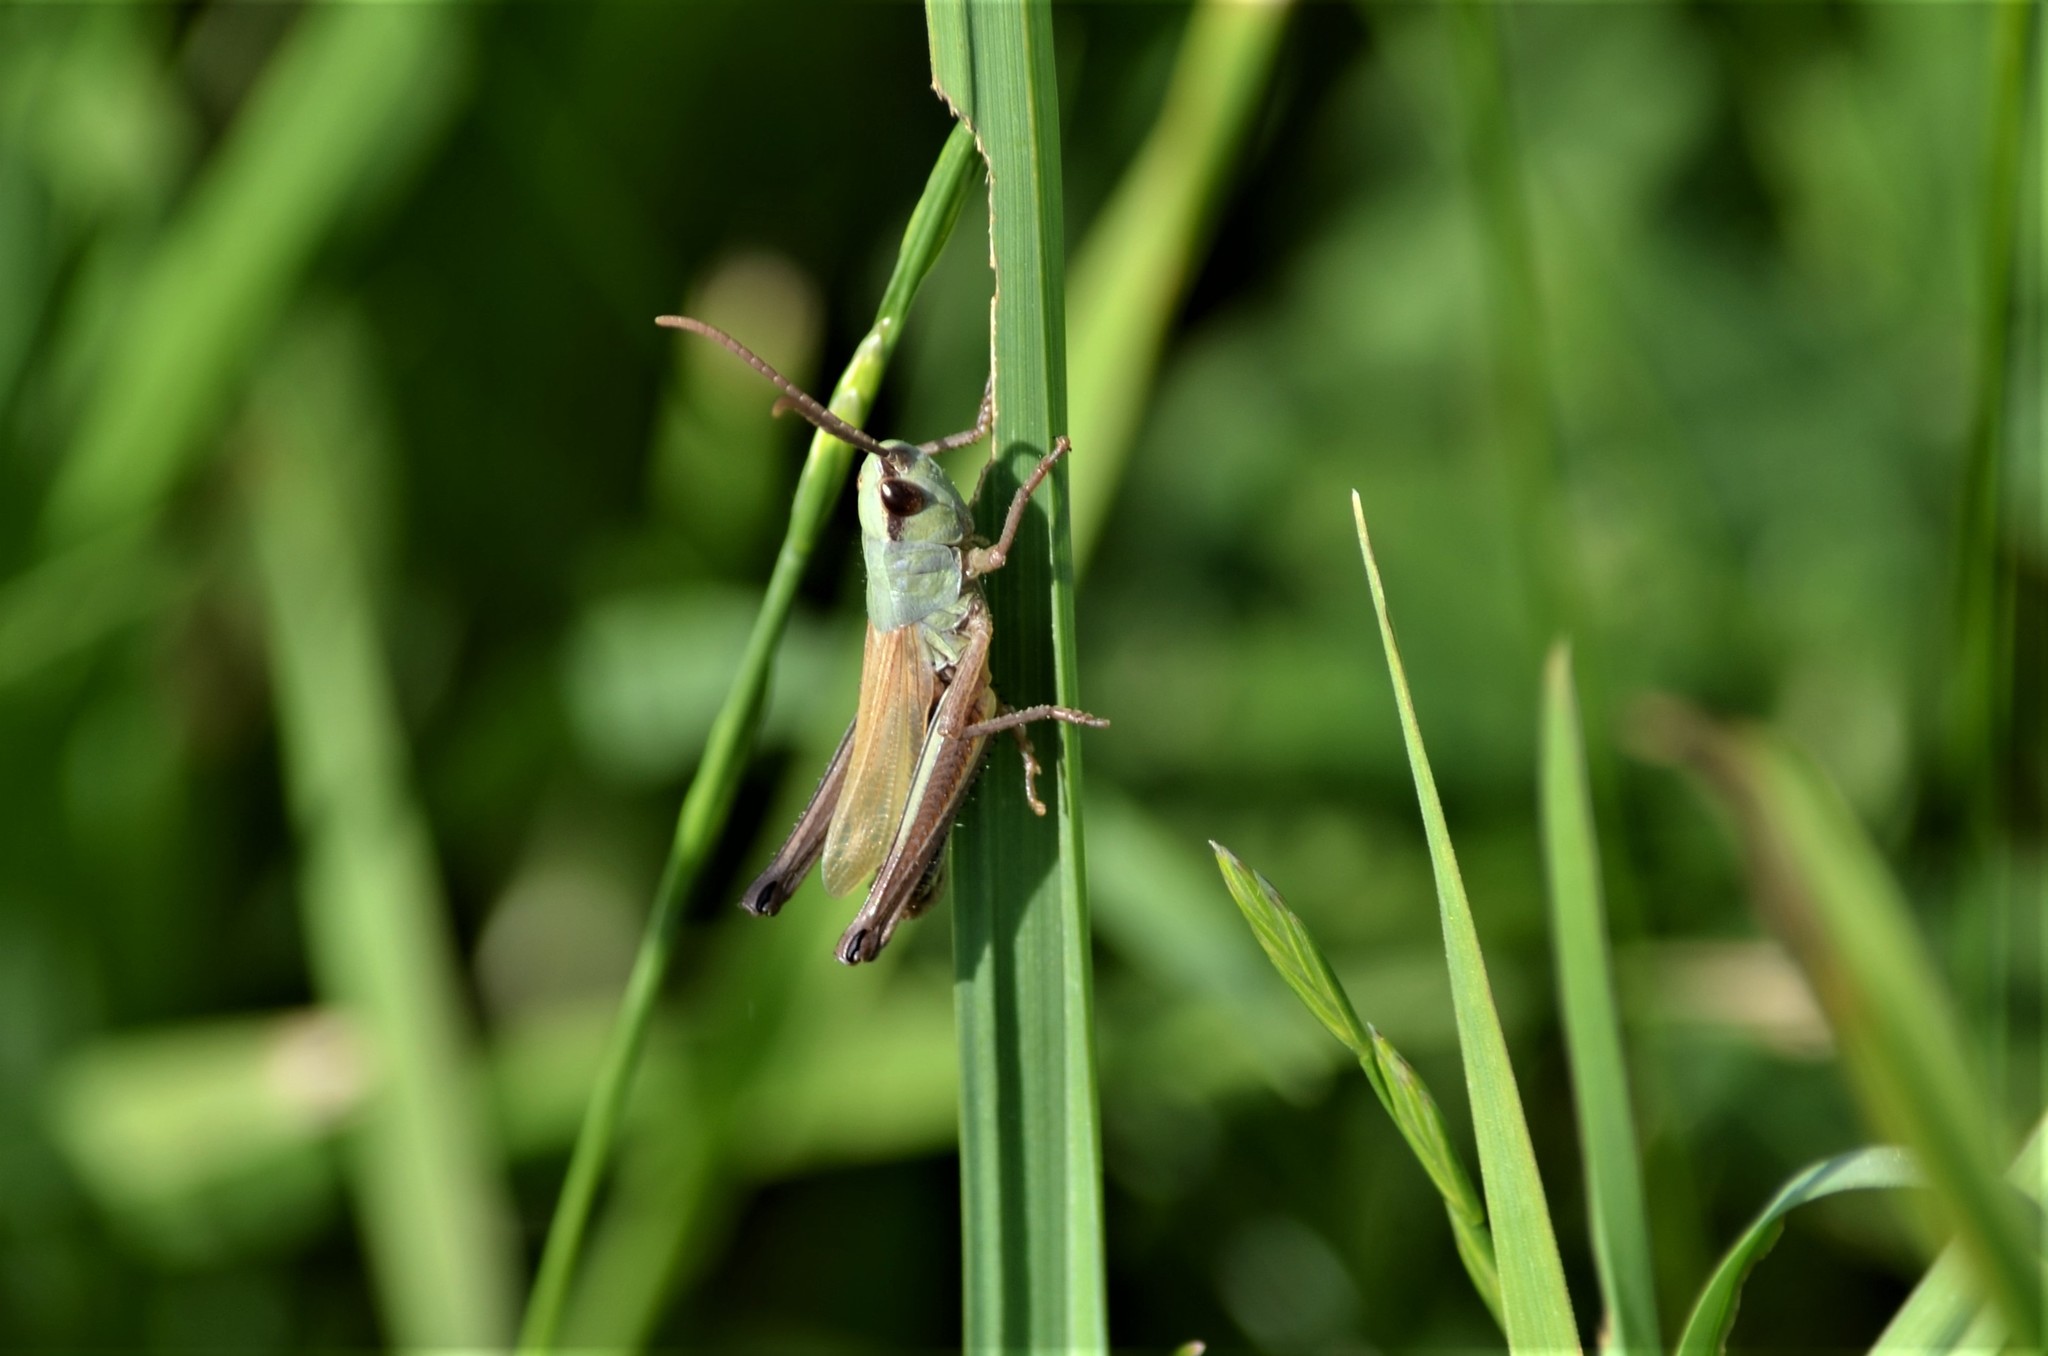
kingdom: Animalia
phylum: Arthropoda
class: Insecta
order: Orthoptera
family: Acrididae
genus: Pseudochorthippus
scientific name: Pseudochorthippus parallelus
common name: Meadow grasshopper
